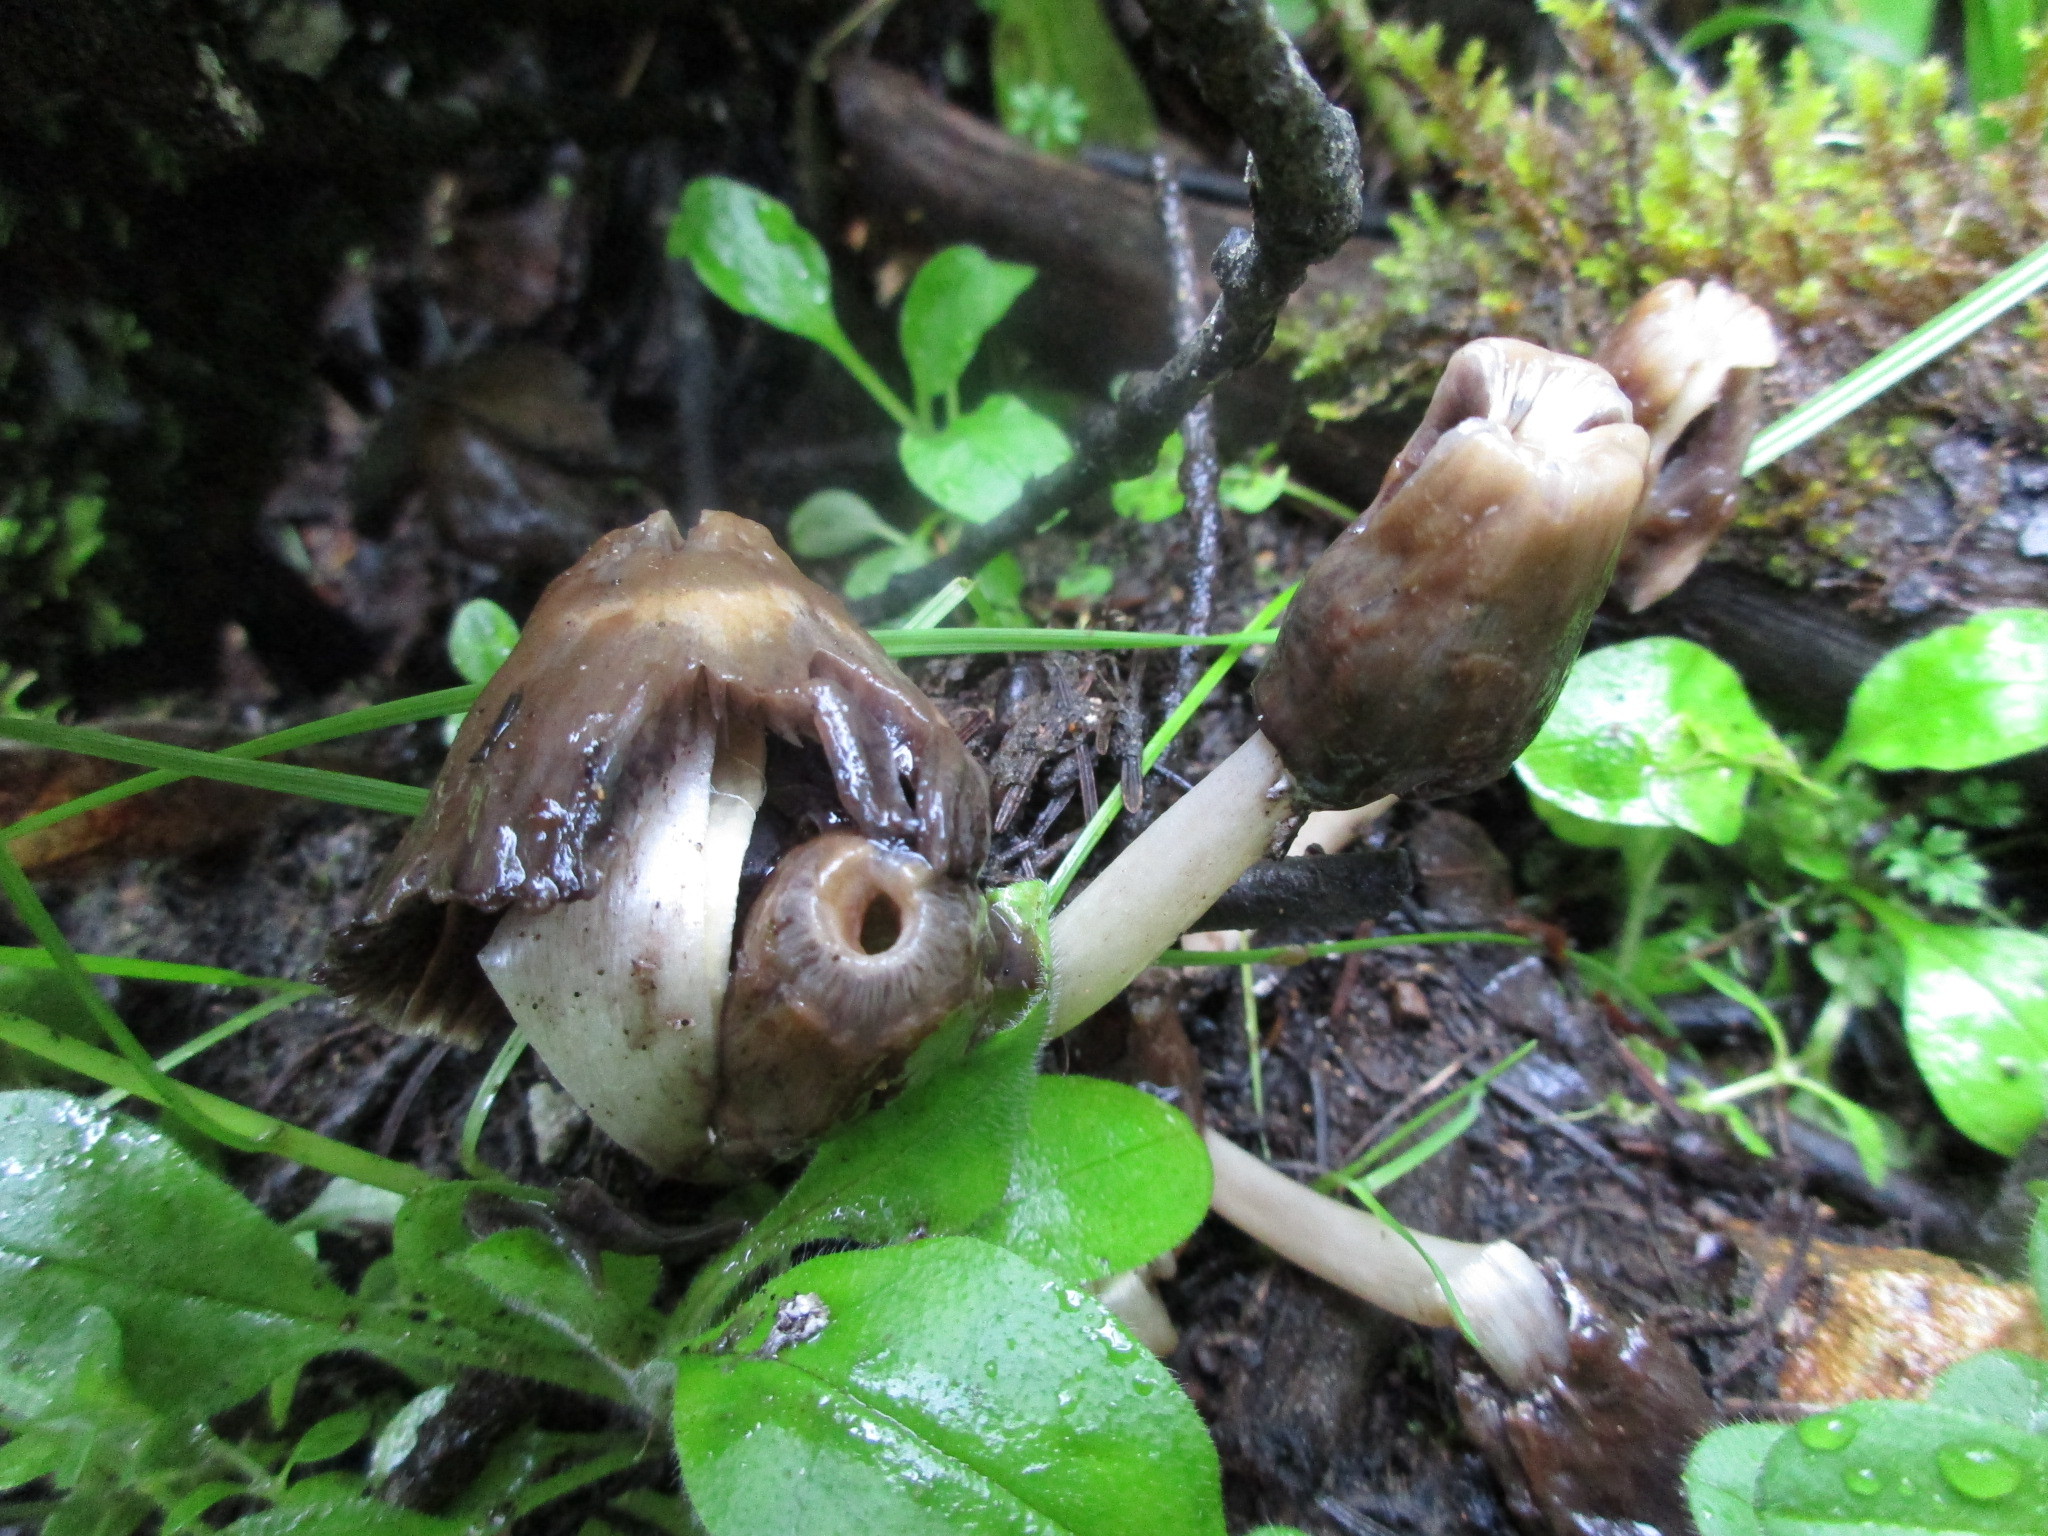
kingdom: Fungi
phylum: Ascomycota
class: Pezizomycetes
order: Pezizales
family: Morchellaceae
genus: Verpa
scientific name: Verpa conica
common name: Thimble morel
